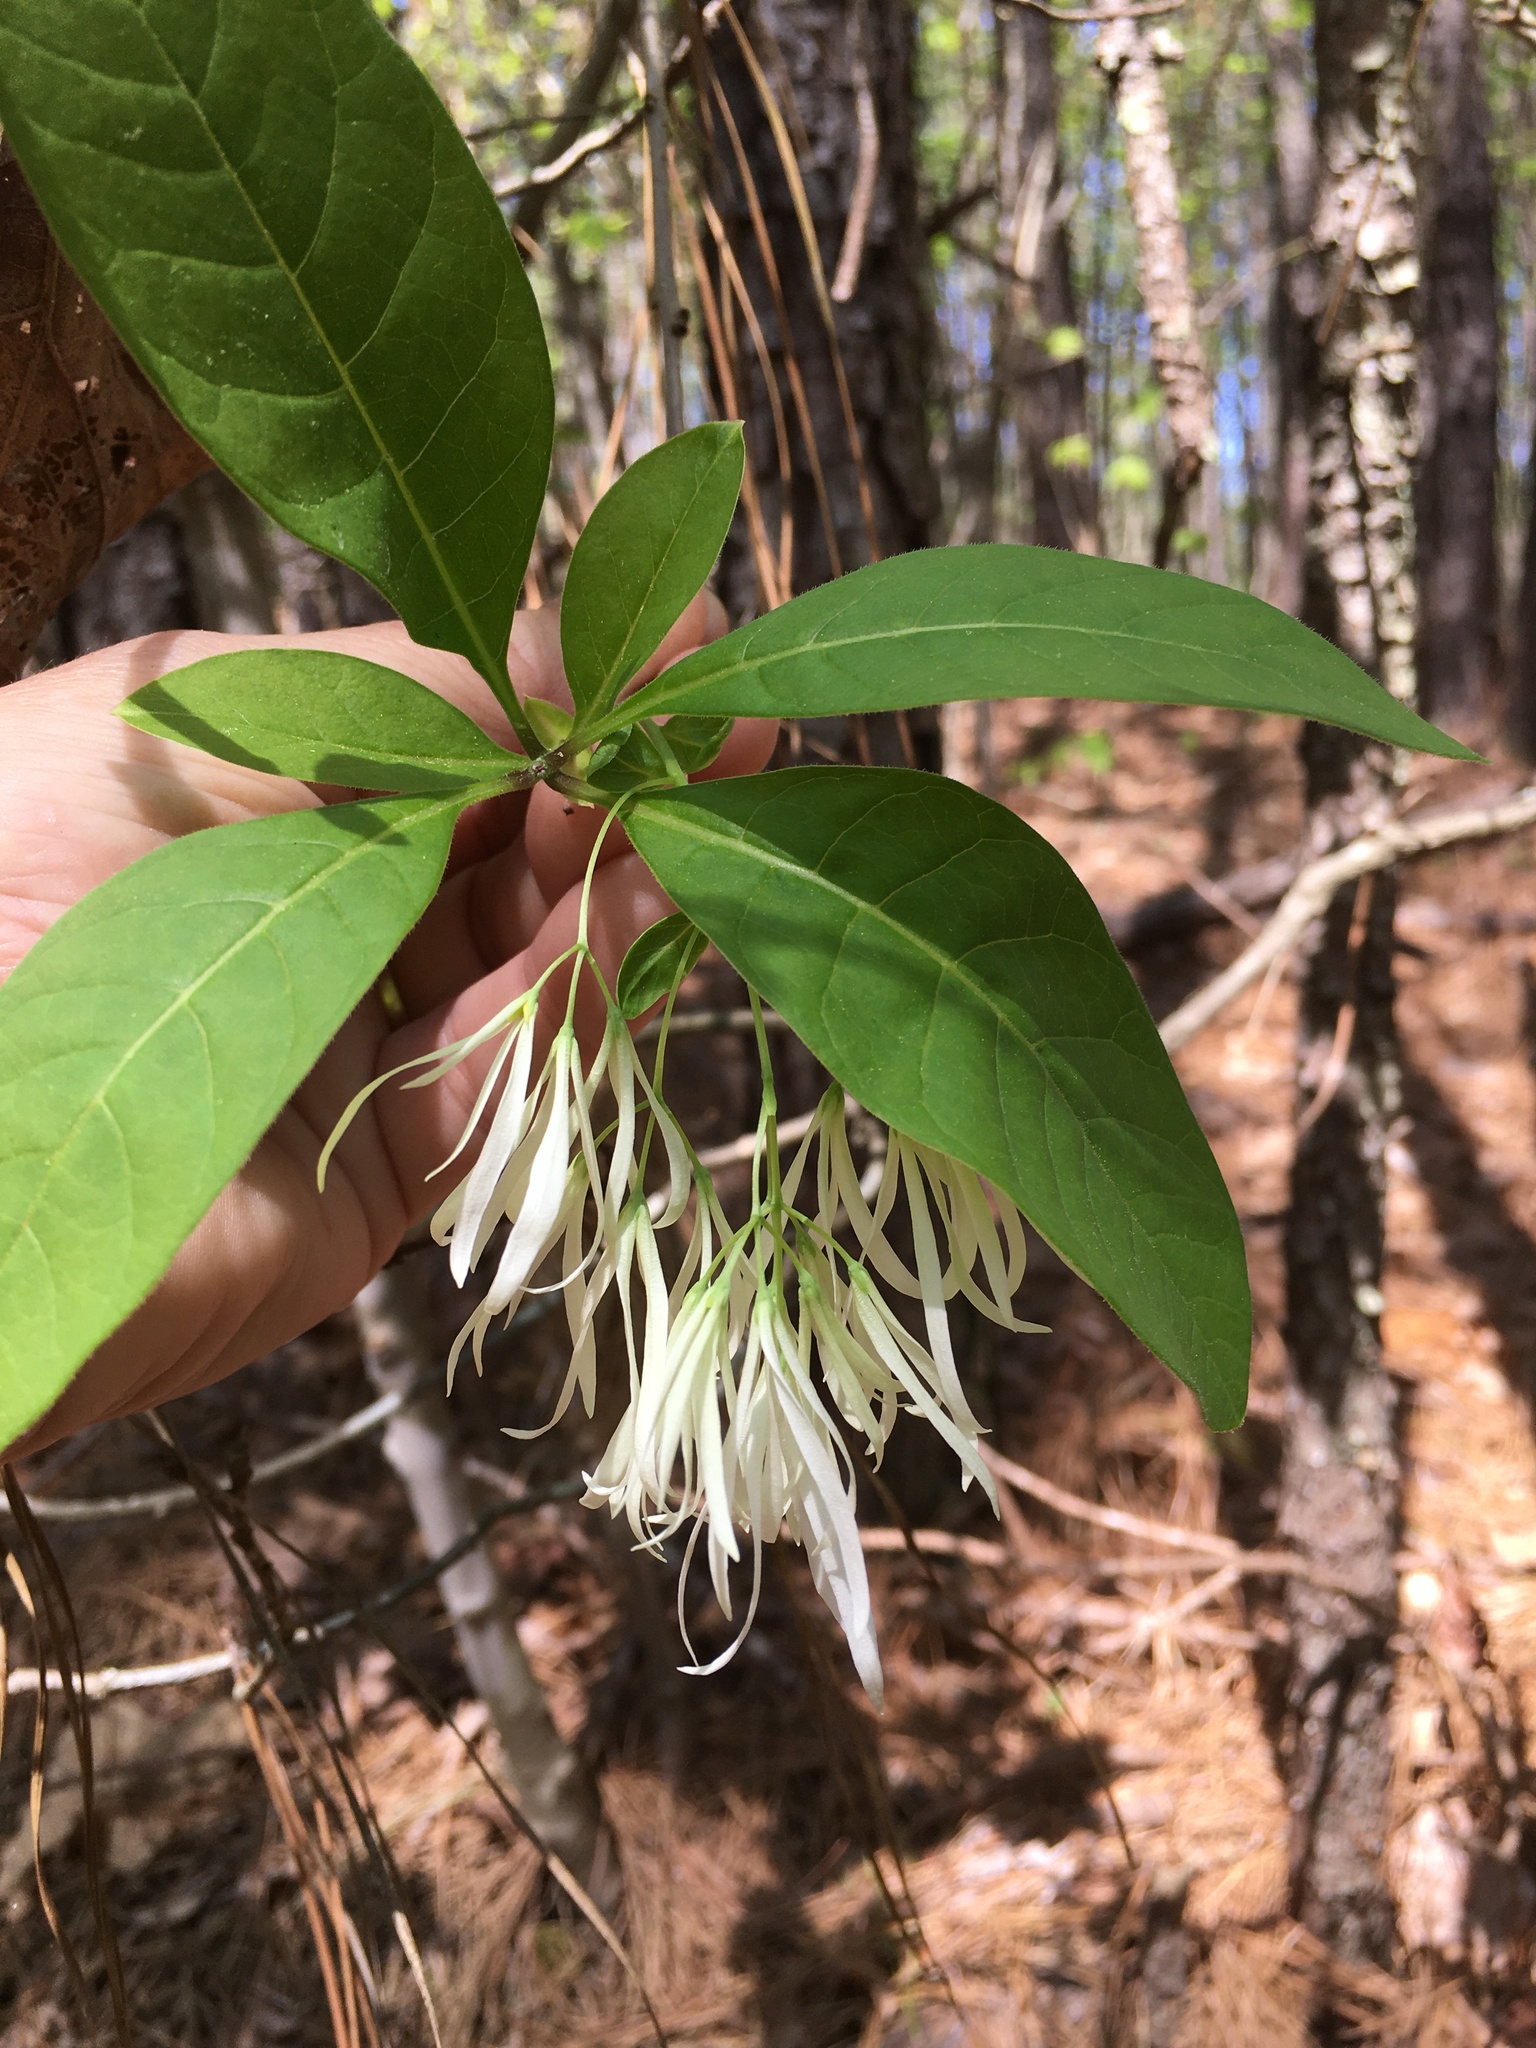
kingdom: Plantae
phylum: Tracheophyta
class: Magnoliopsida
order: Lamiales
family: Oleaceae
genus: Chionanthus
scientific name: Chionanthus virginicus
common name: American fringetree
